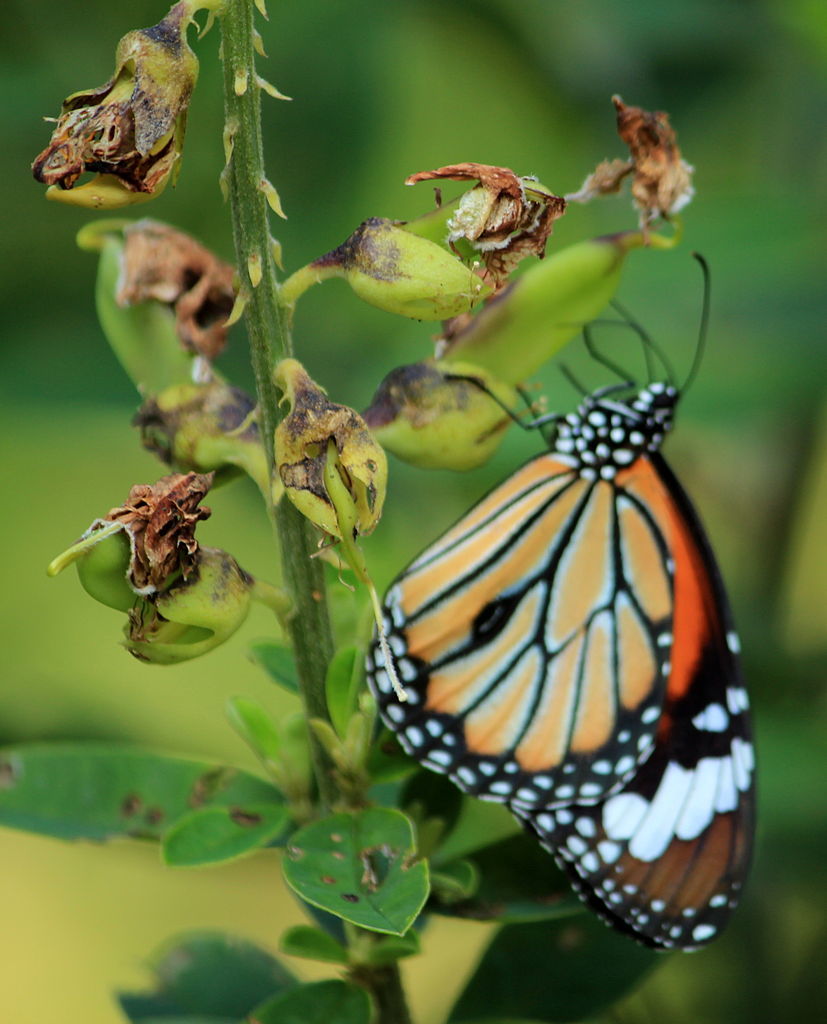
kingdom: Animalia
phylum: Arthropoda
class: Insecta
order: Lepidoptera
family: Nymphalidae
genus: Danaus
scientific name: Danaus genutia
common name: Common tiger butterfly
